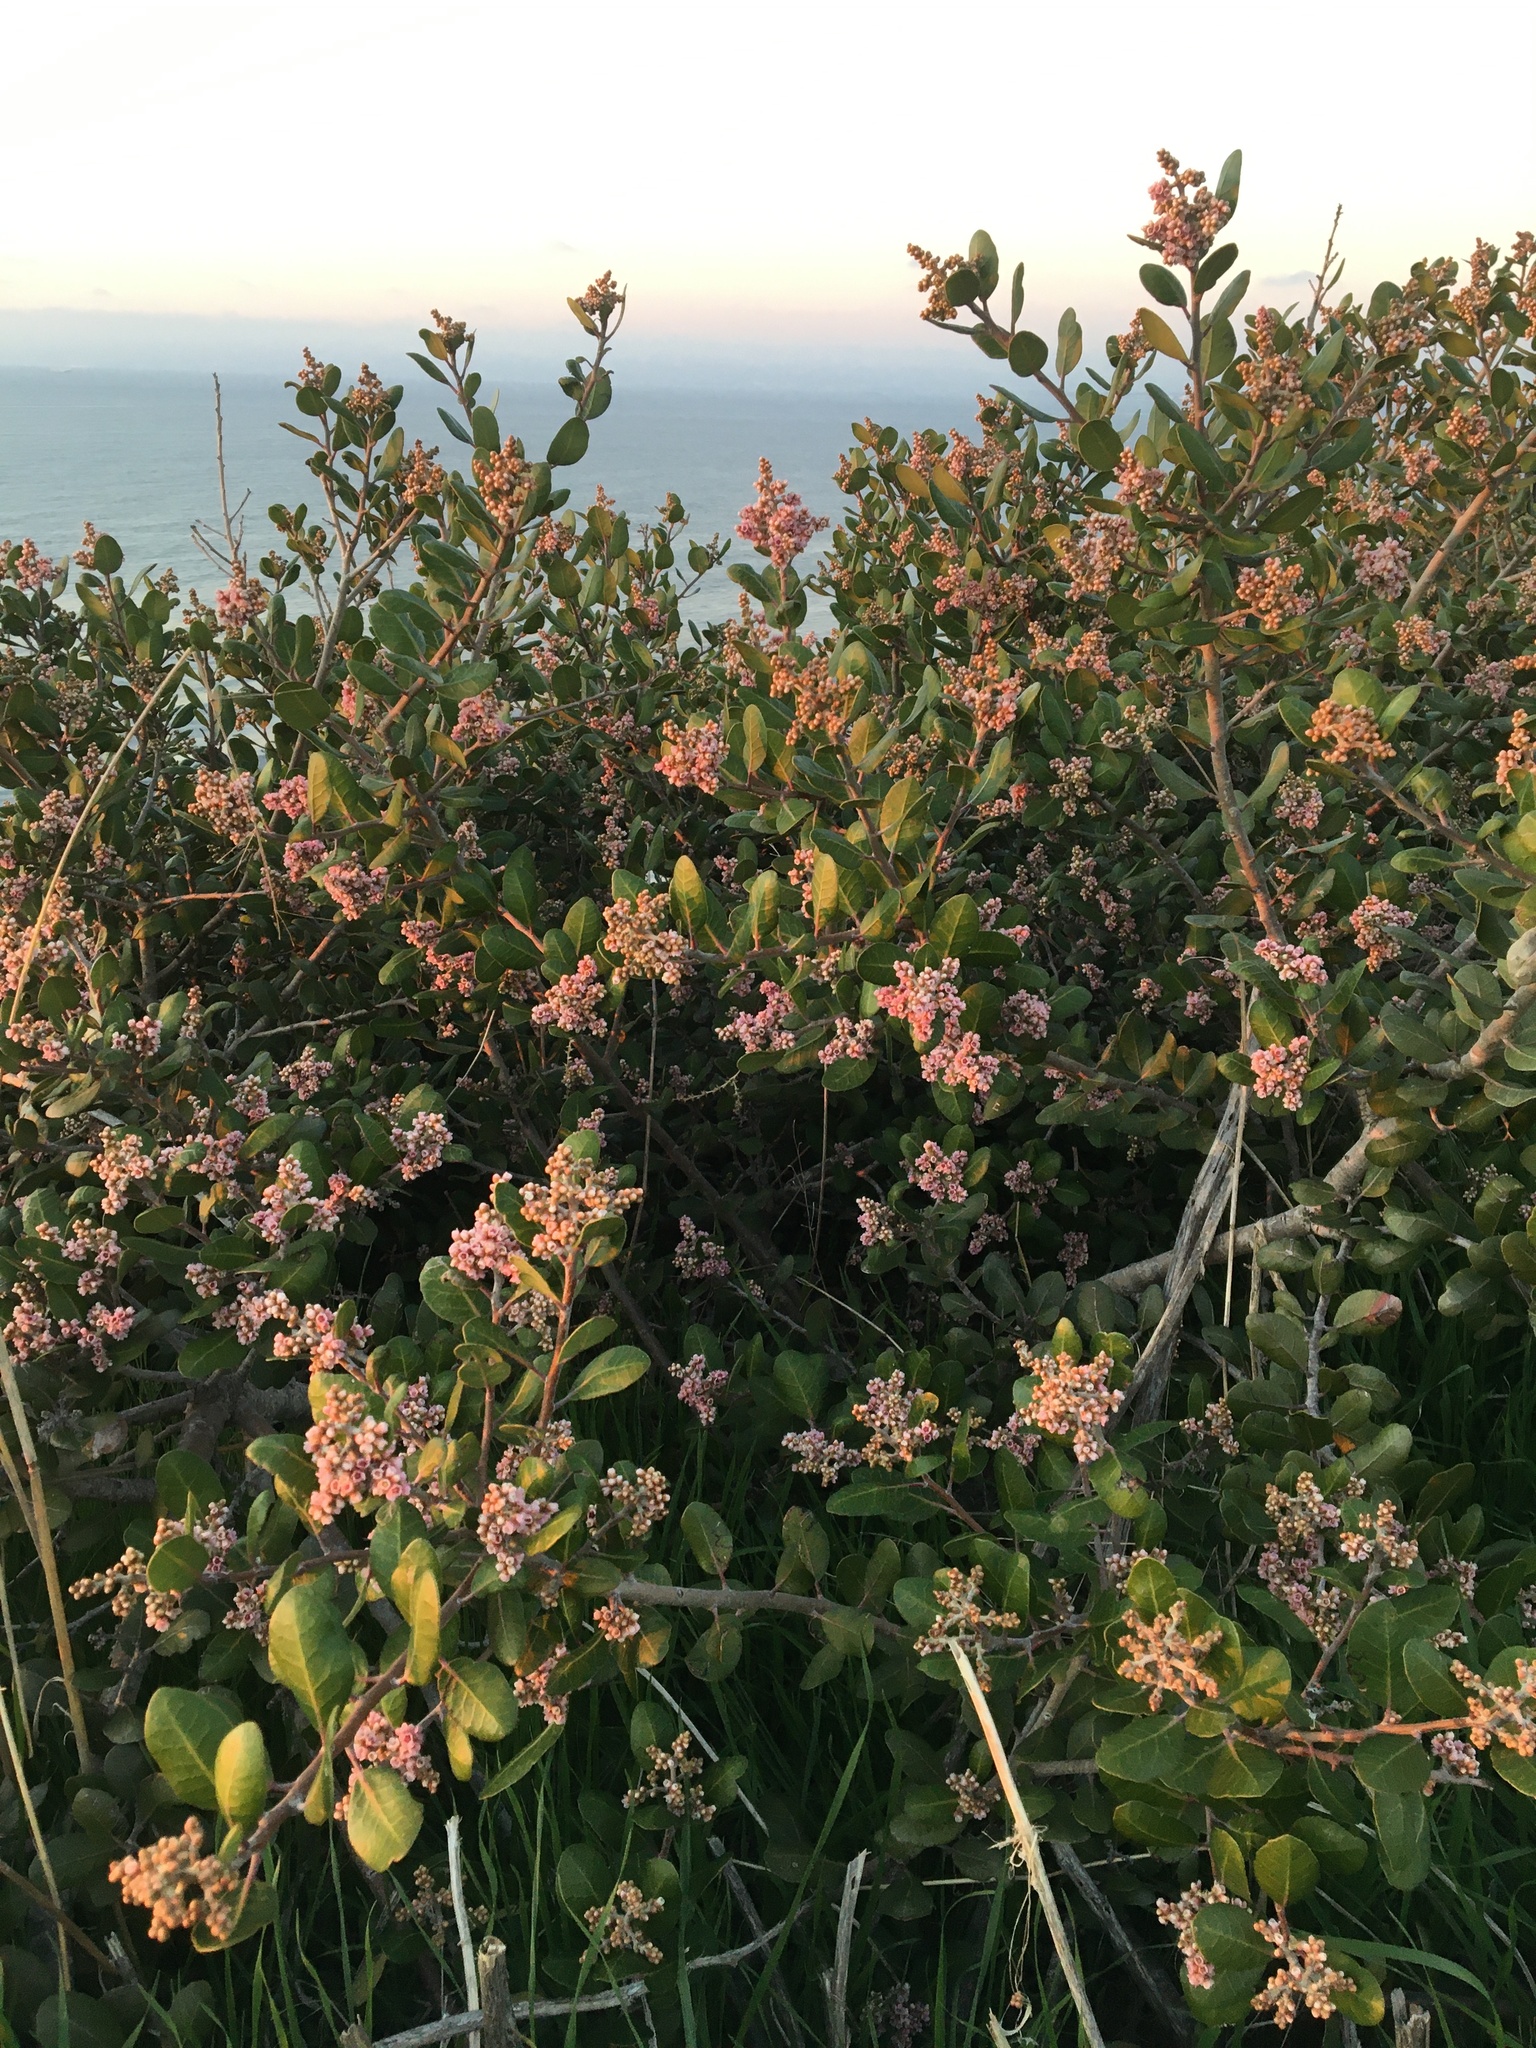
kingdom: Plantae
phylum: Tracheophyta
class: Magnoliopsida
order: Sapindales
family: Anacardiaceae
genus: Rhus
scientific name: Rhus integrifolia
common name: Lemonade sumac
